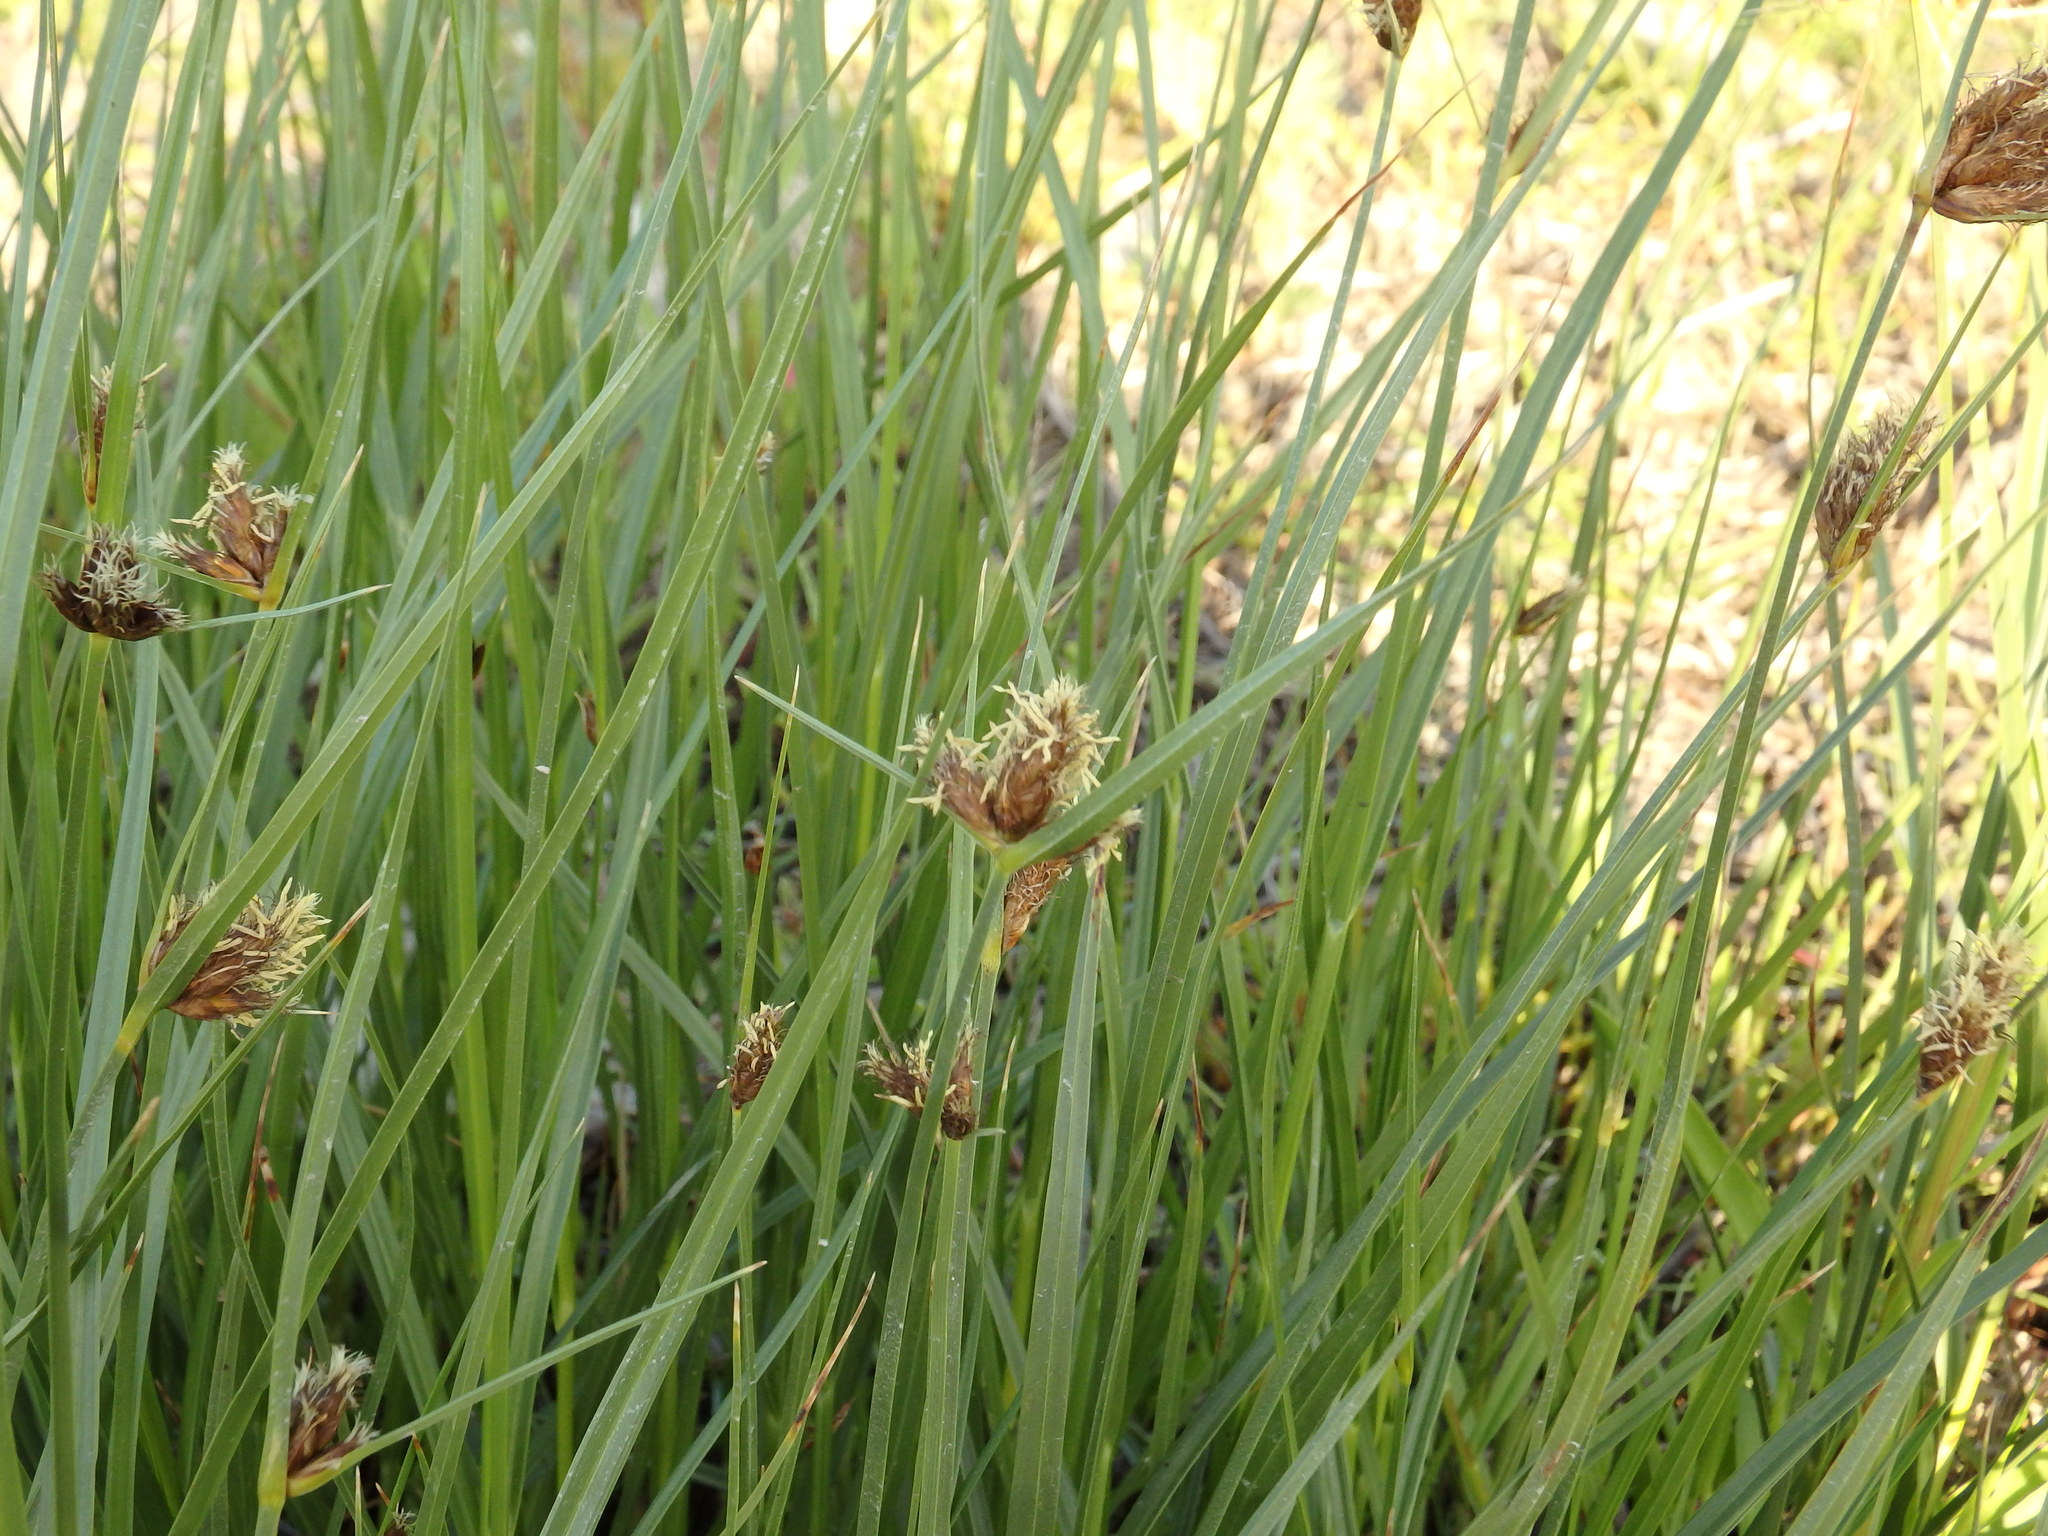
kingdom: Plantae
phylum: Tracheophyta
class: Liliopsida
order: Poales
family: Cyperaceae
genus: Bolboschoenus
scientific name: Bolboschoenus maritimus
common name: Sea club-rush
